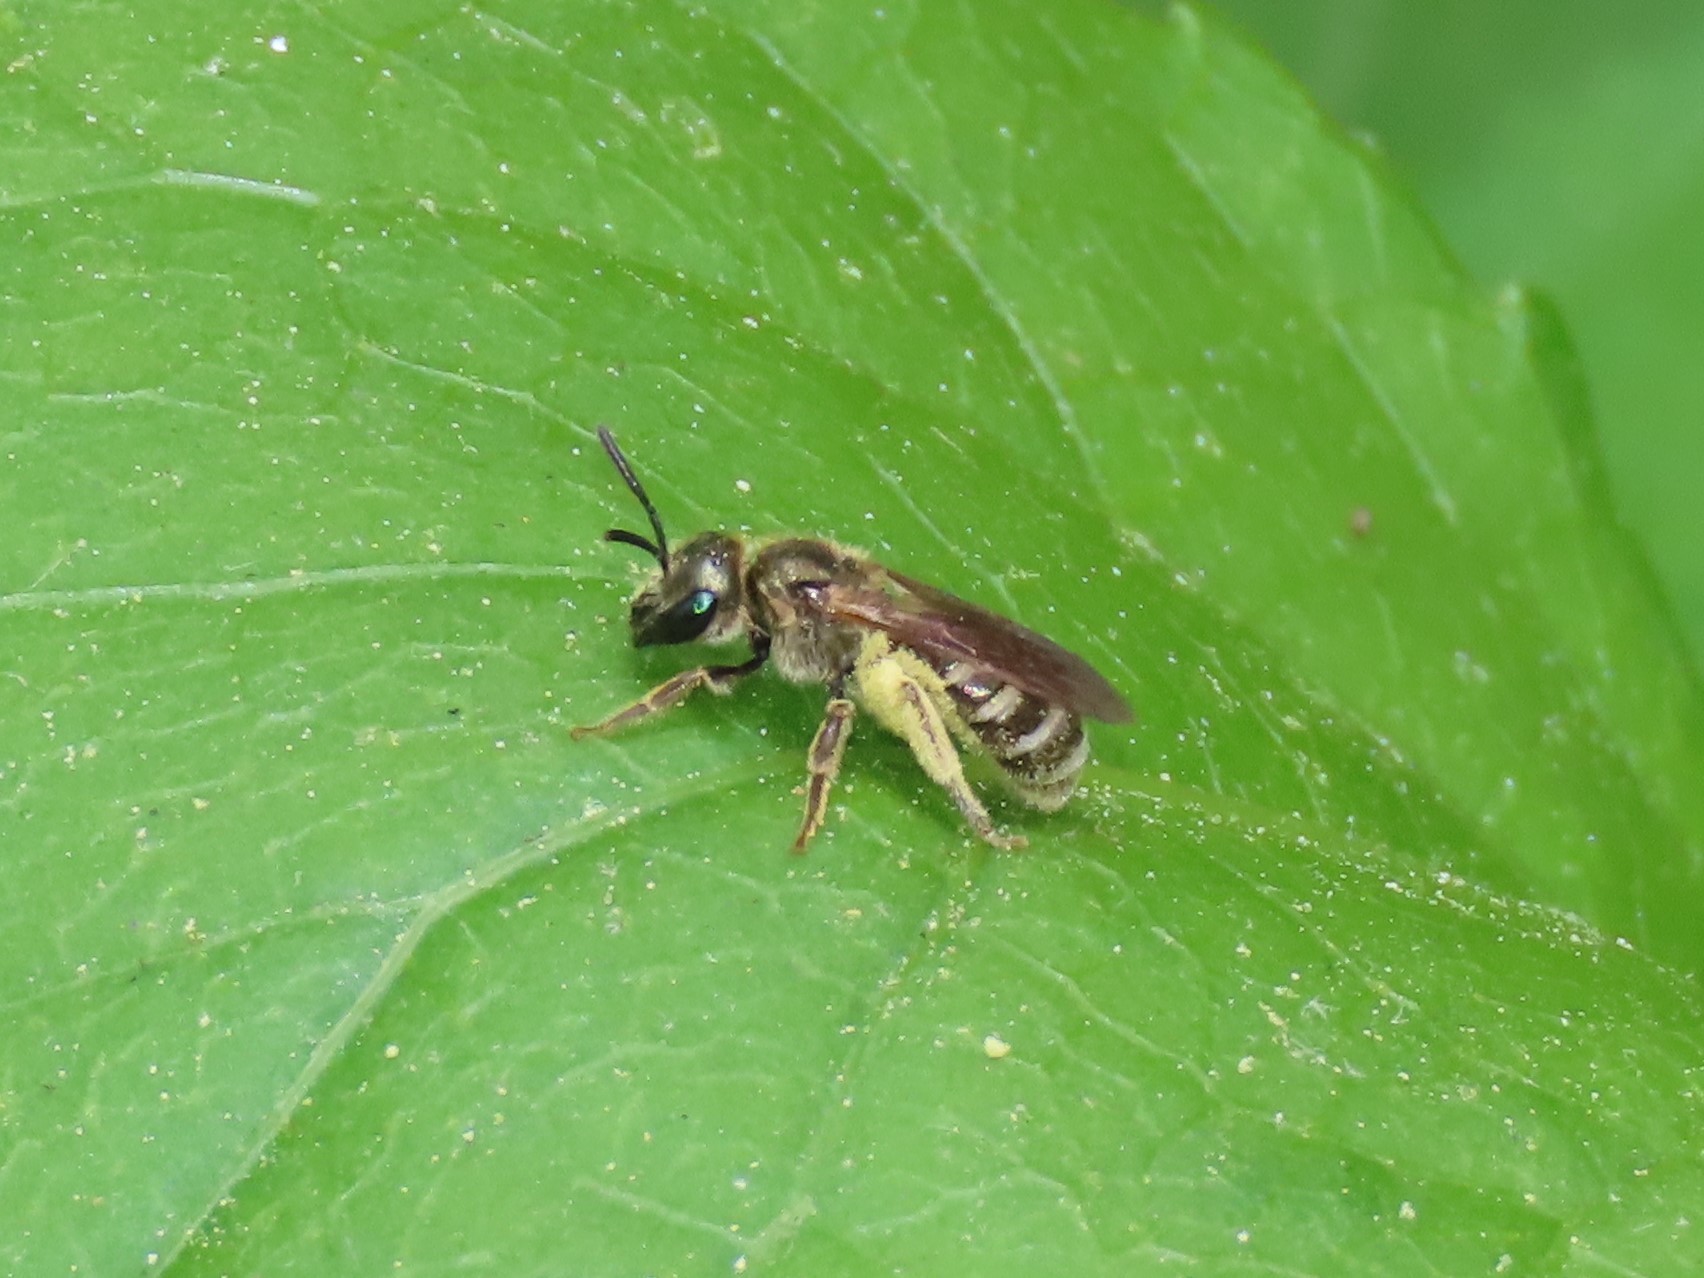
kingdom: Animalia
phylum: Arthropoda
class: Insecta
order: Hymenoptera
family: Halictidae
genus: Halictus
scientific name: Halictus confusus
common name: Southern bronze furrow bee
